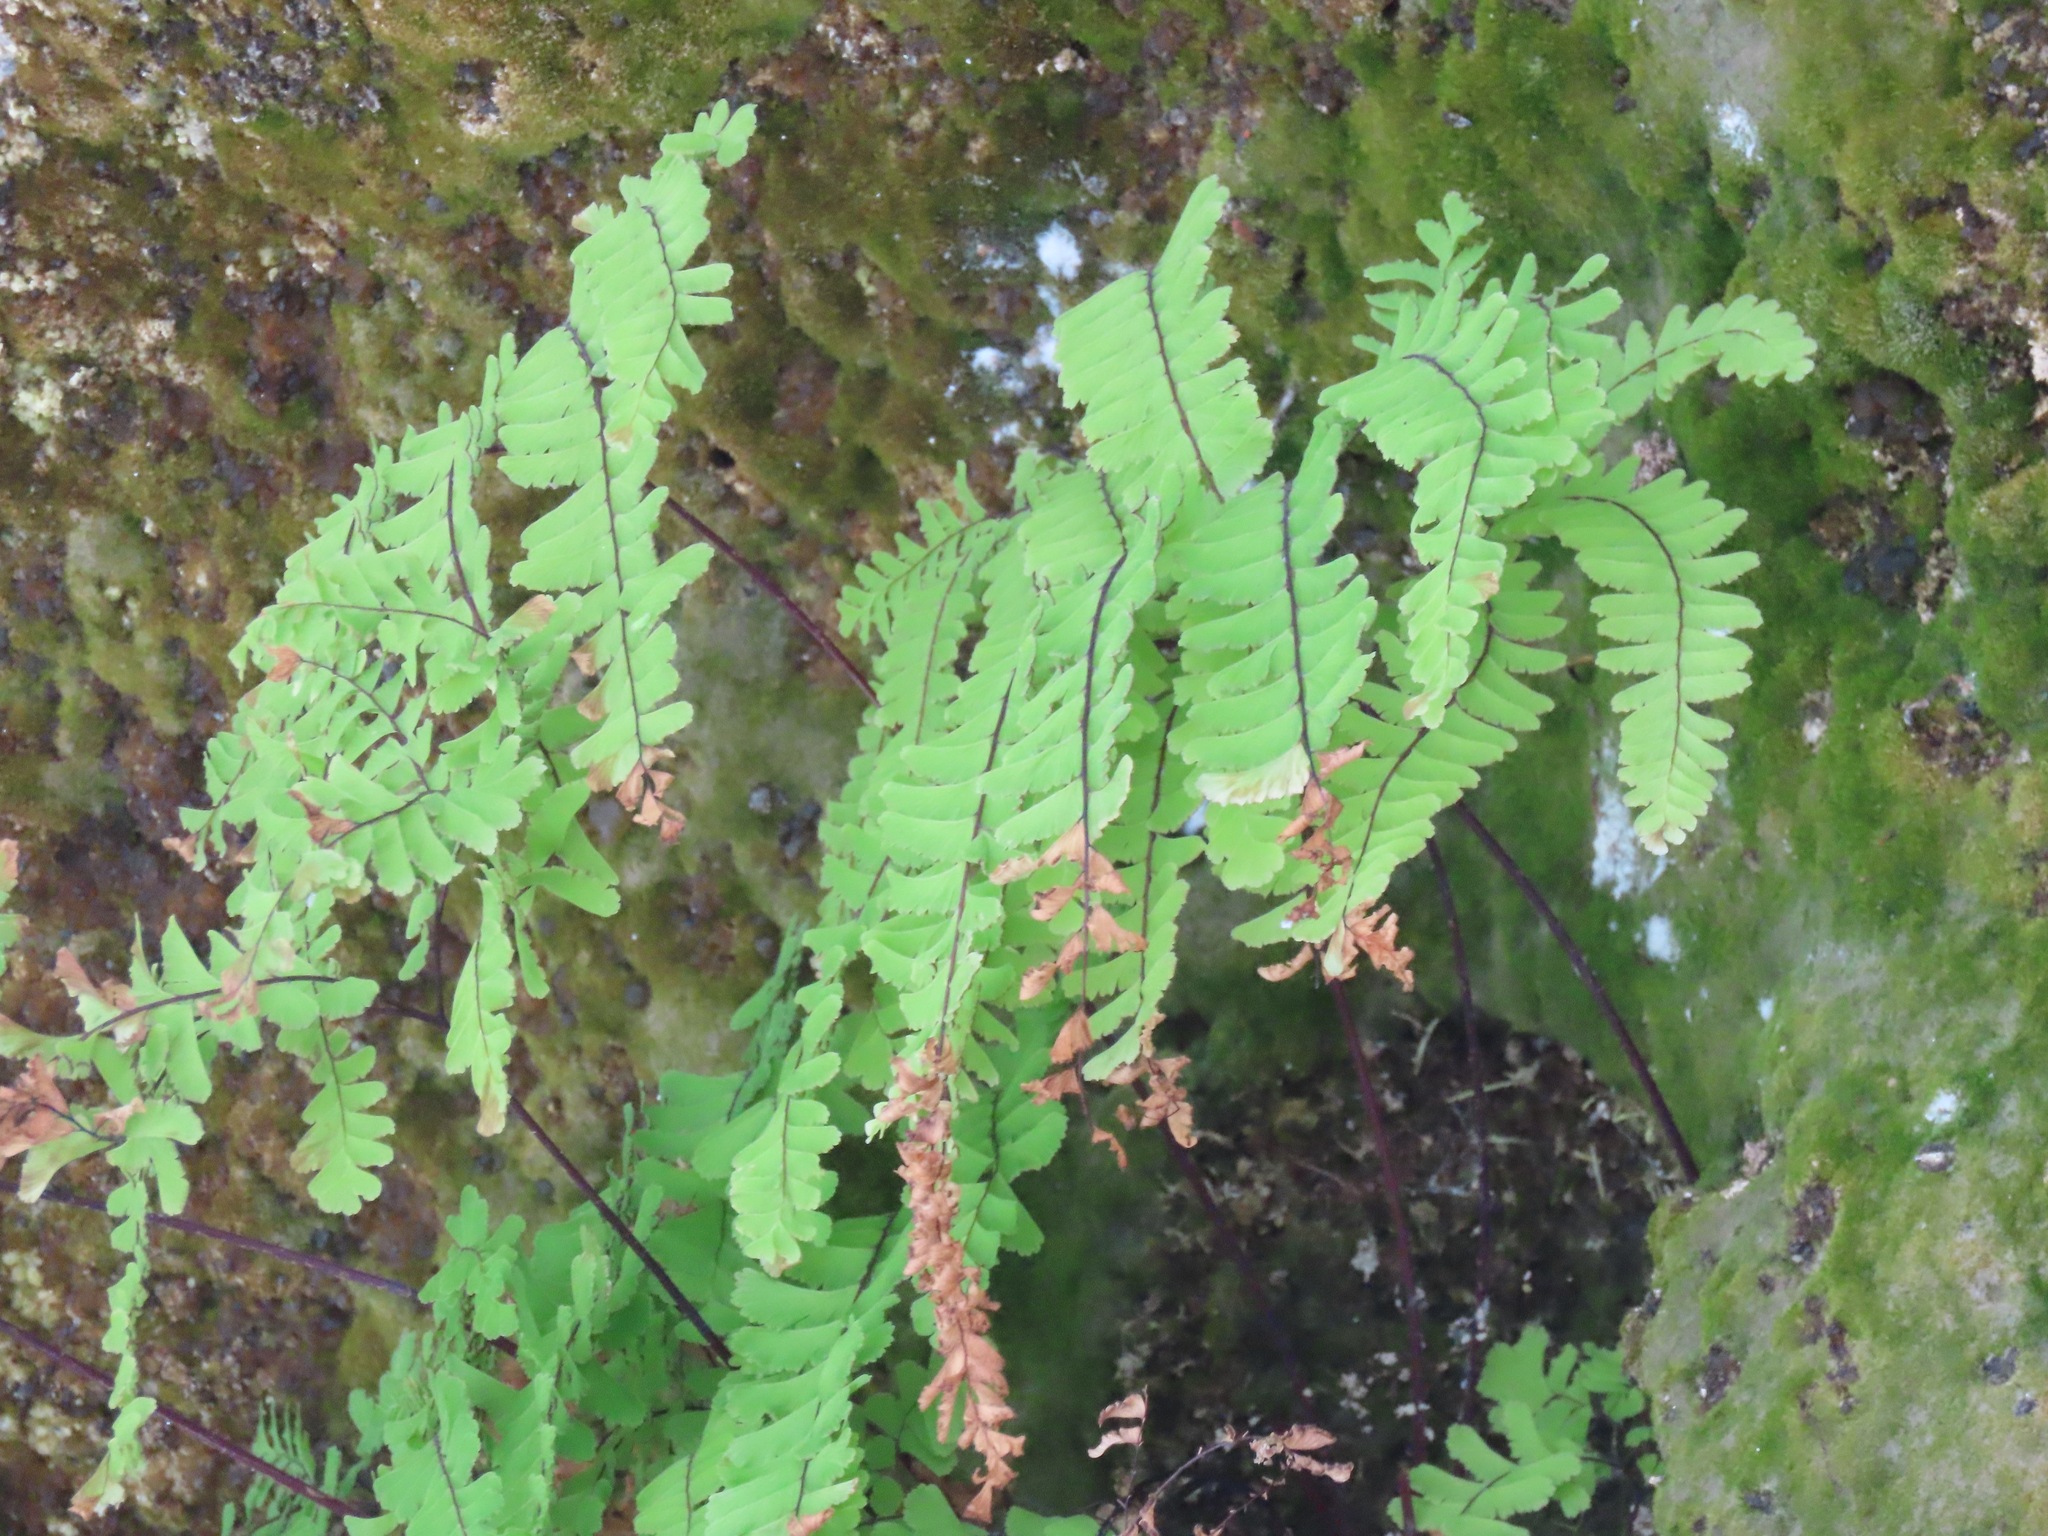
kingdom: Plantae
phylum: Tracheophyta
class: Polypodiopsida
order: Polypodiales
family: Pteridaceae
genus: Adiantum
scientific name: Adiantum aleuticum
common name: Aleutian maidenhair fern
